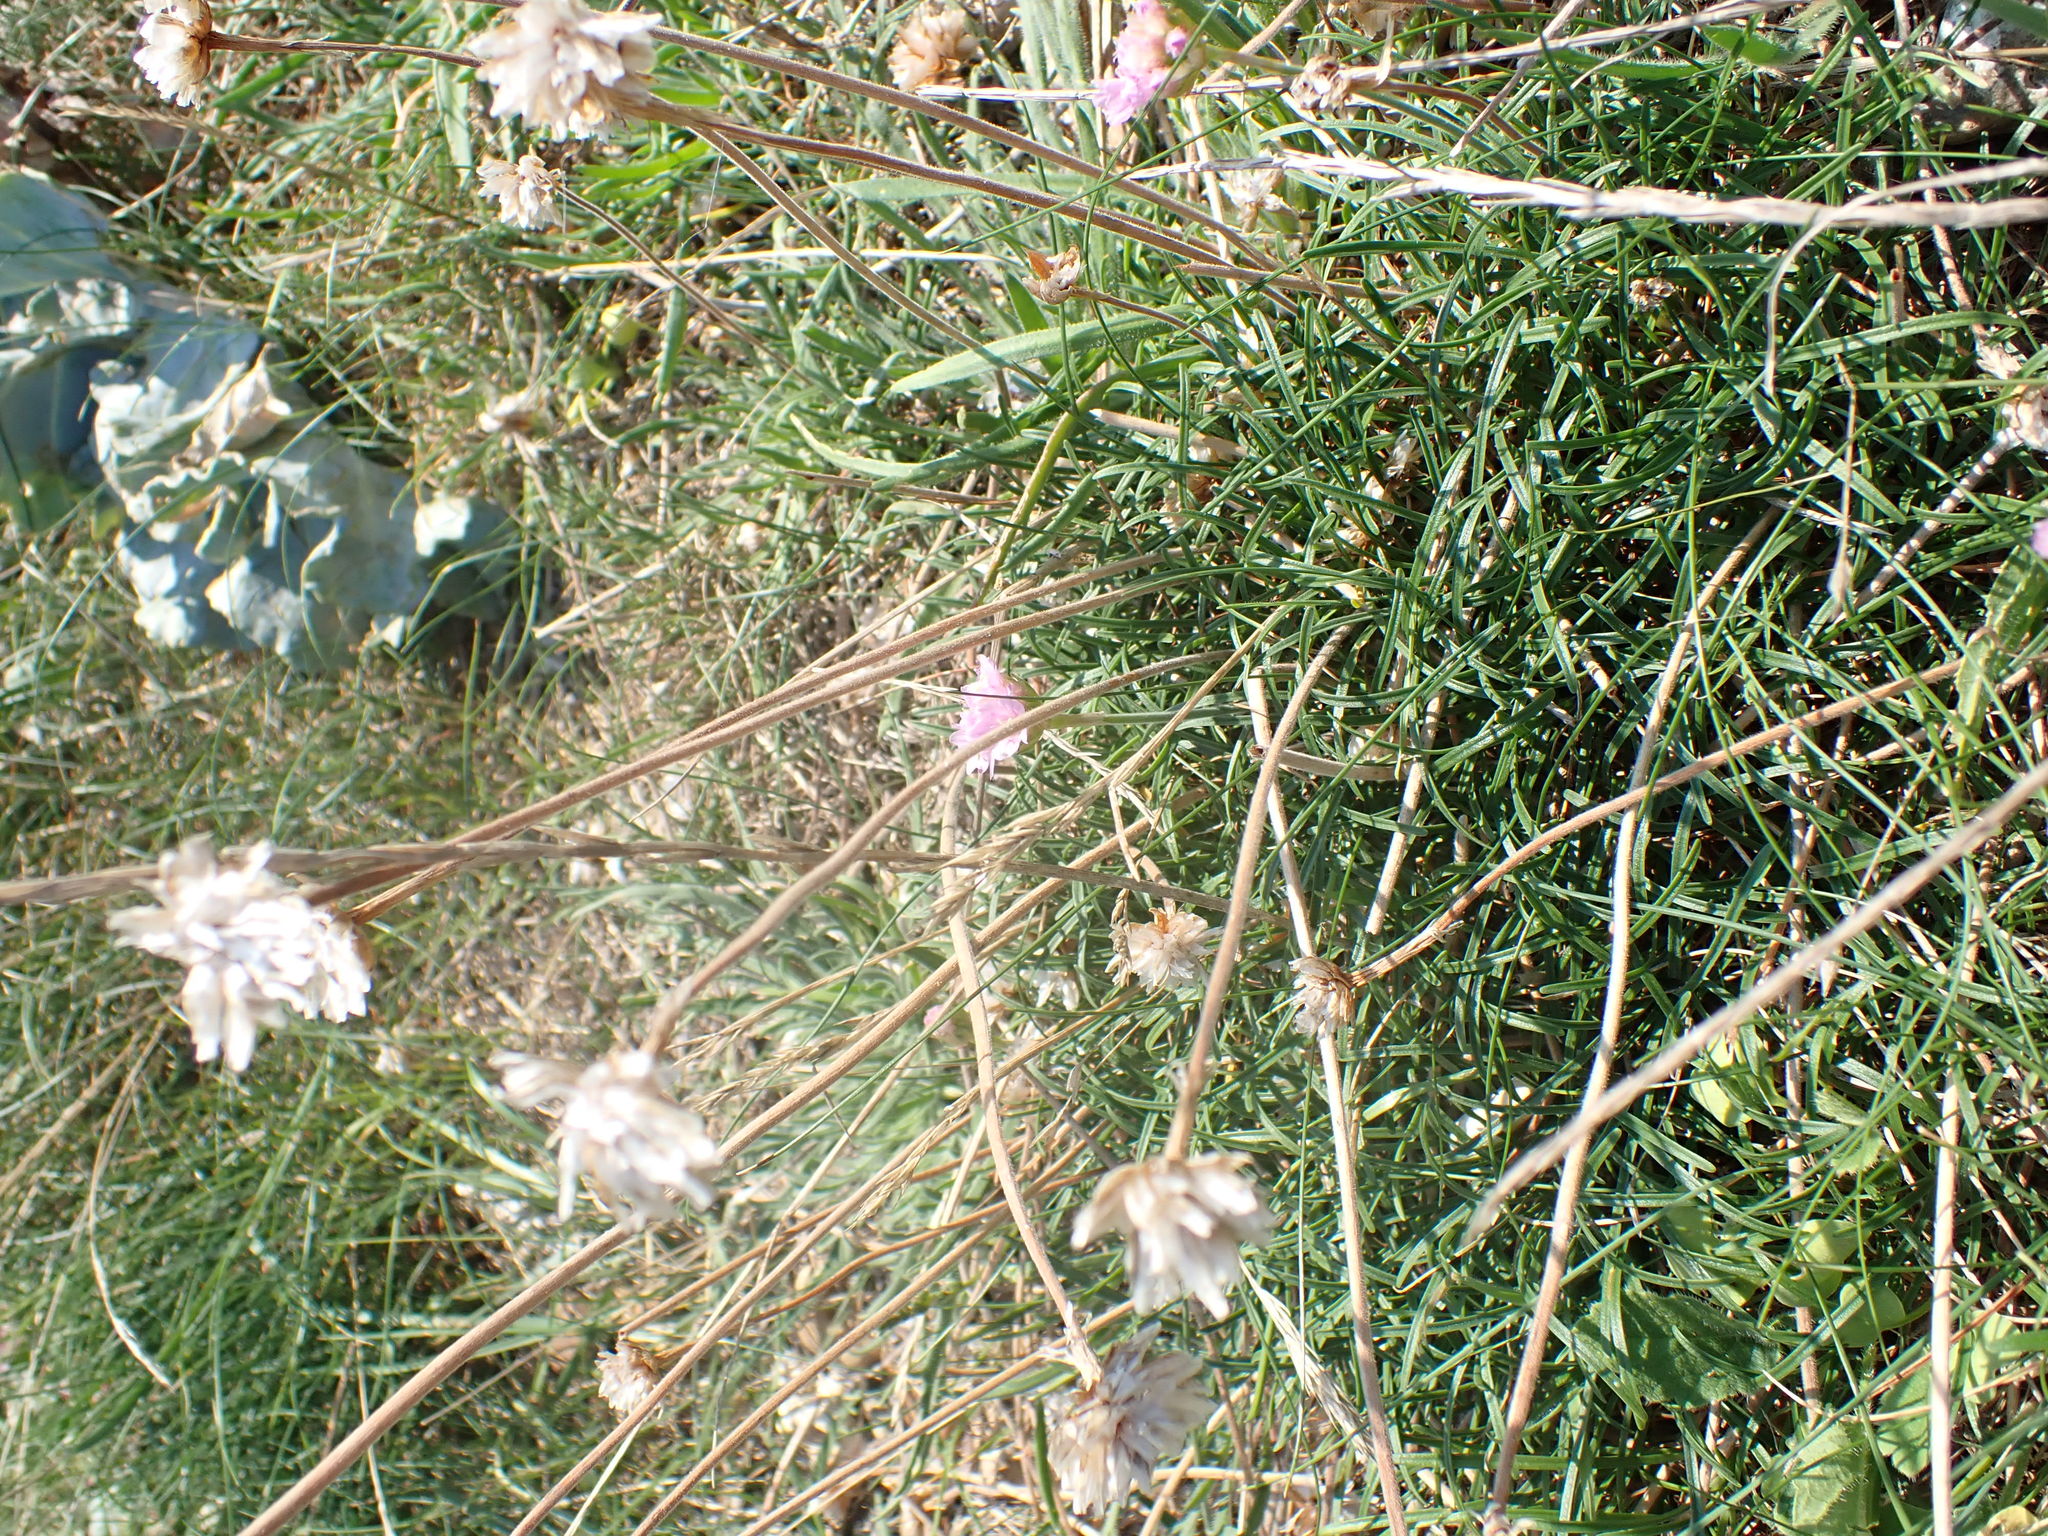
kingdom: Plantae
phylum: Tracheophyta
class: Magnoliopsida
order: Caryophyllales
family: Plumbaginaceae
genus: Armeria
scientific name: Armeria maritima
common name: Thrift
